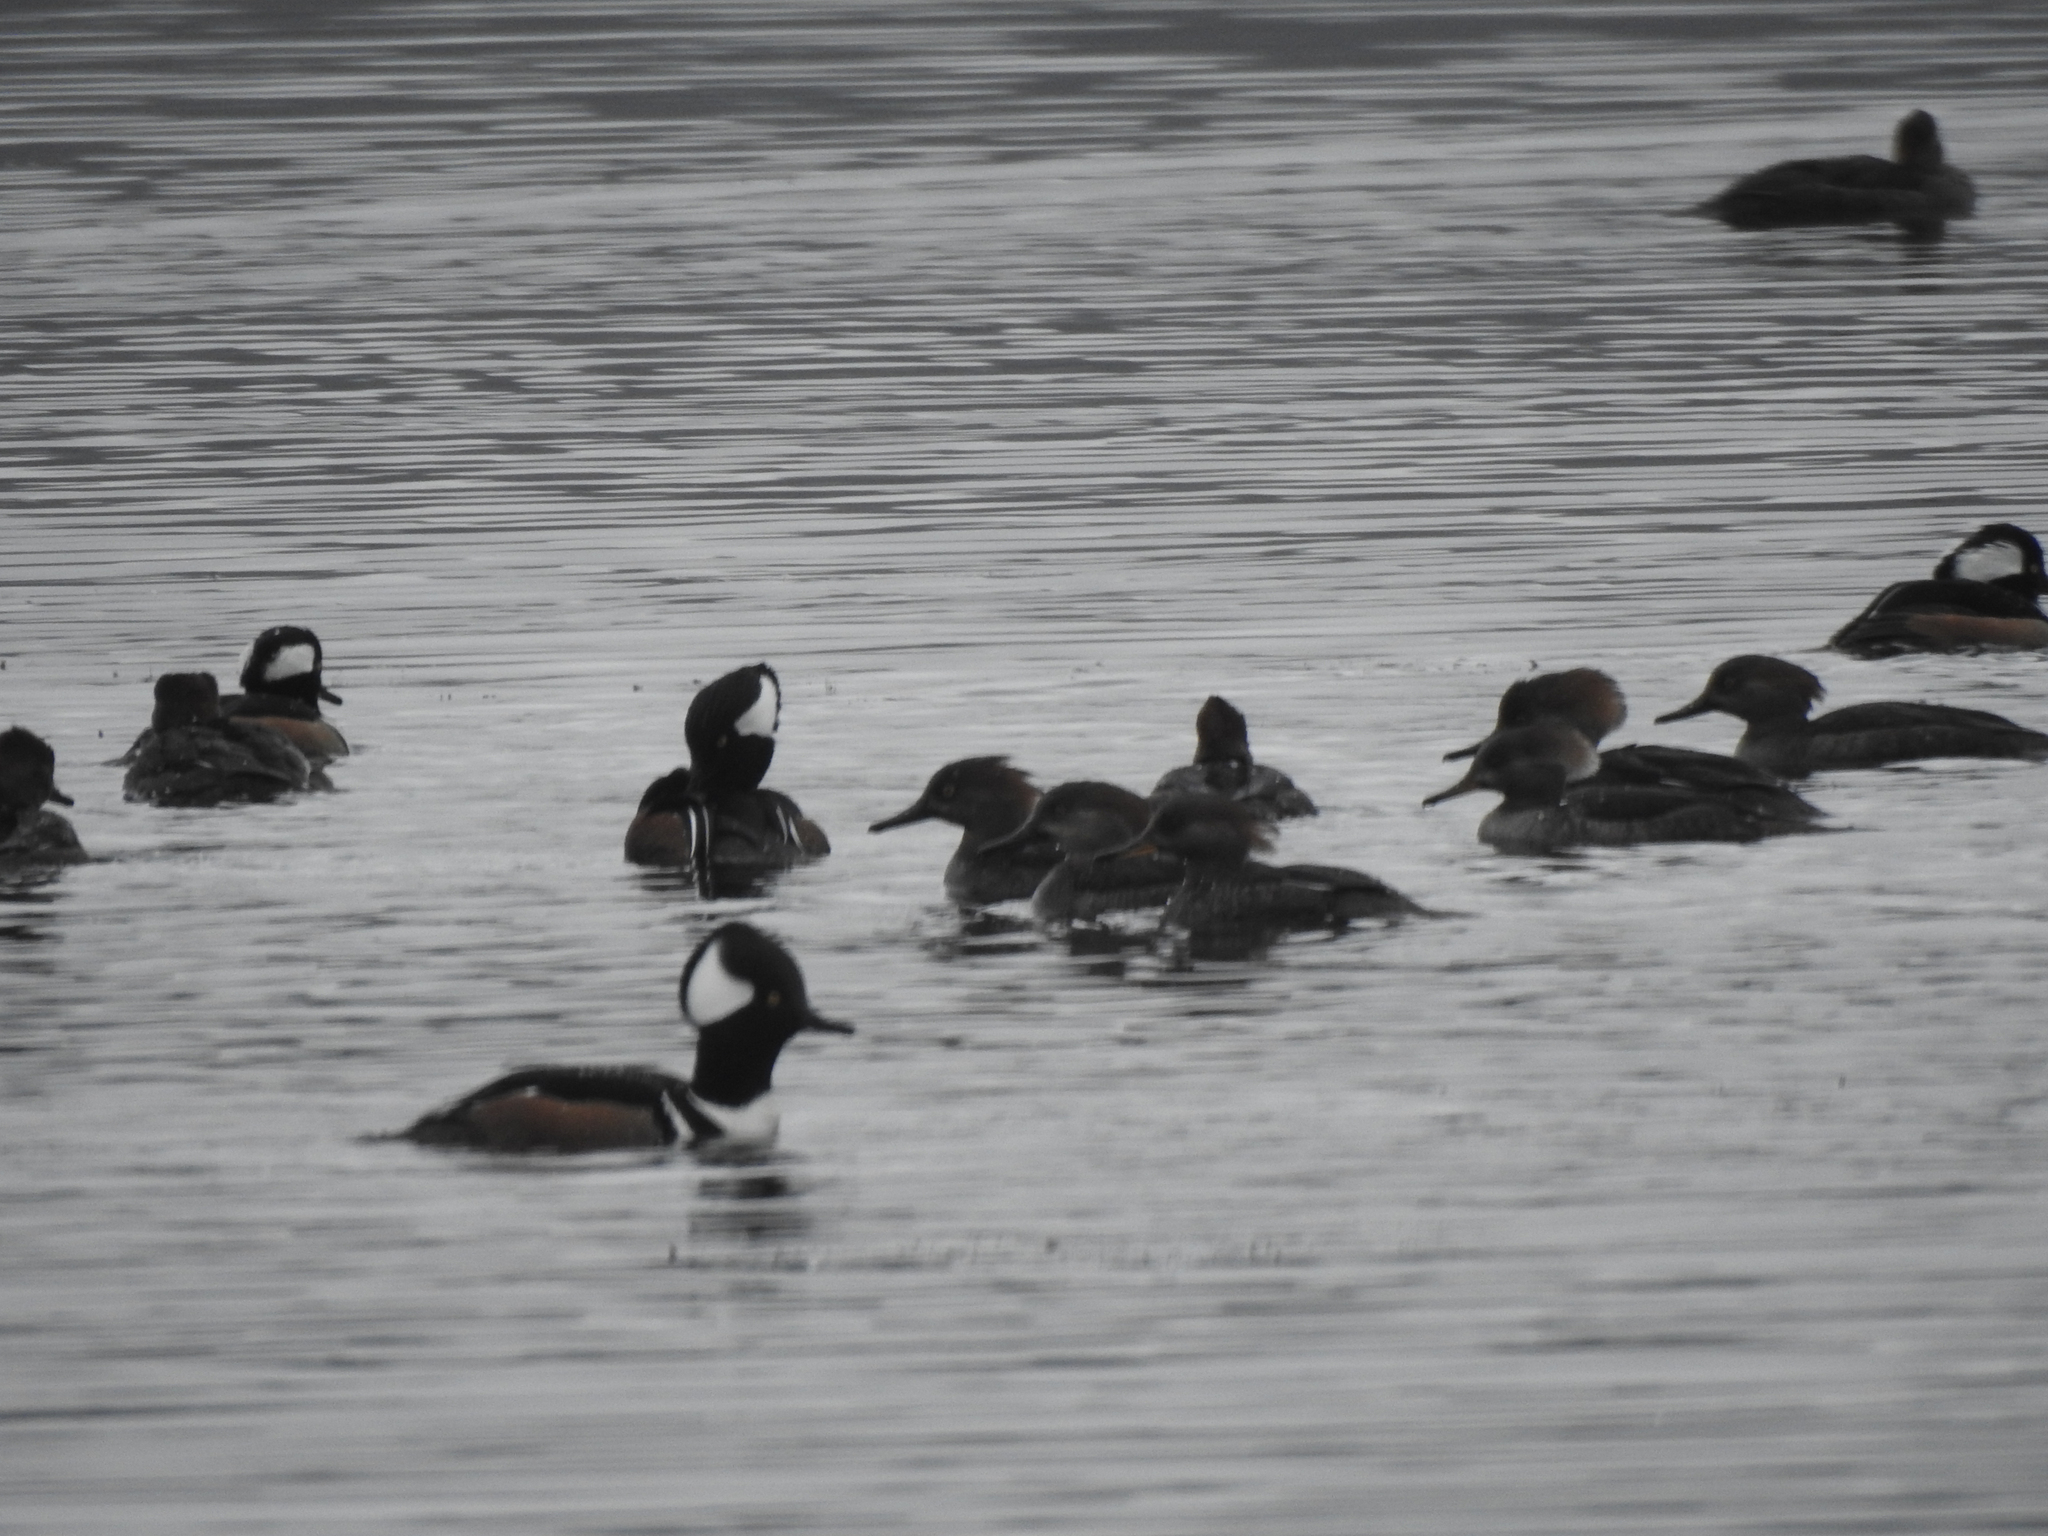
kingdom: Animalia
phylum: Chordata
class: Aves
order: Anseriformes
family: Anatidae
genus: Lophodytes
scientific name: Lophodytes cucullatus
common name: Hooded merganser
